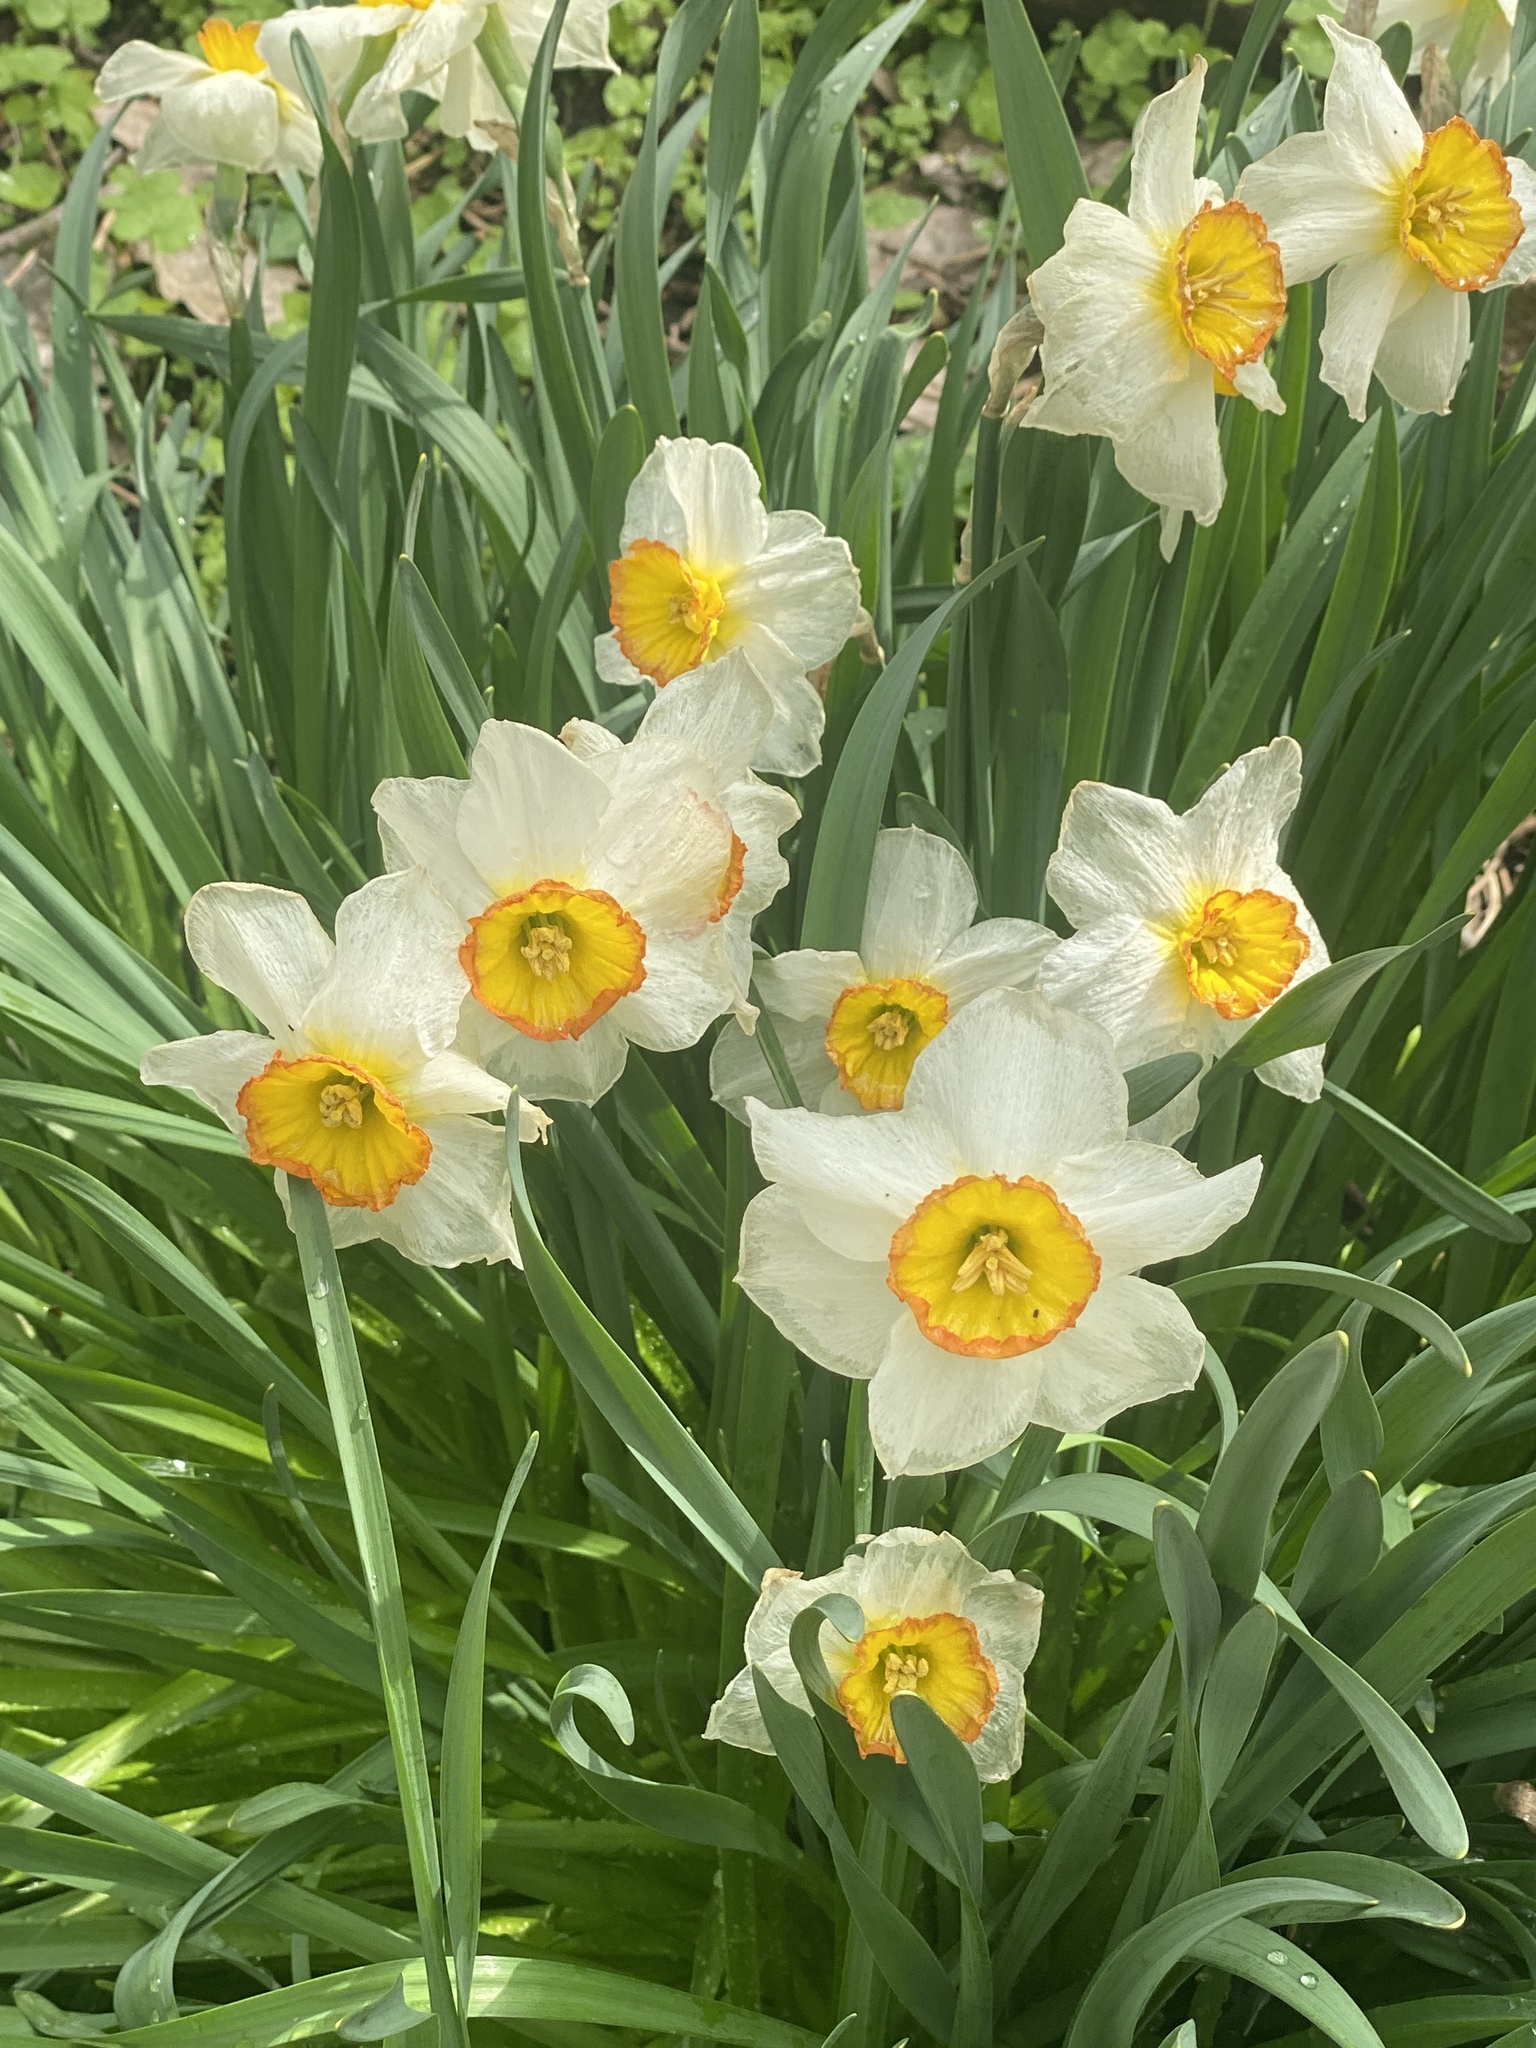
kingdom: Plantae
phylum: Tracheophyta
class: Liliopsida
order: Asparagales
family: Amaryllidaceae
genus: Narcissus
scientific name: Narcissus poeticus
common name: Pheasant's-eye daffodil
